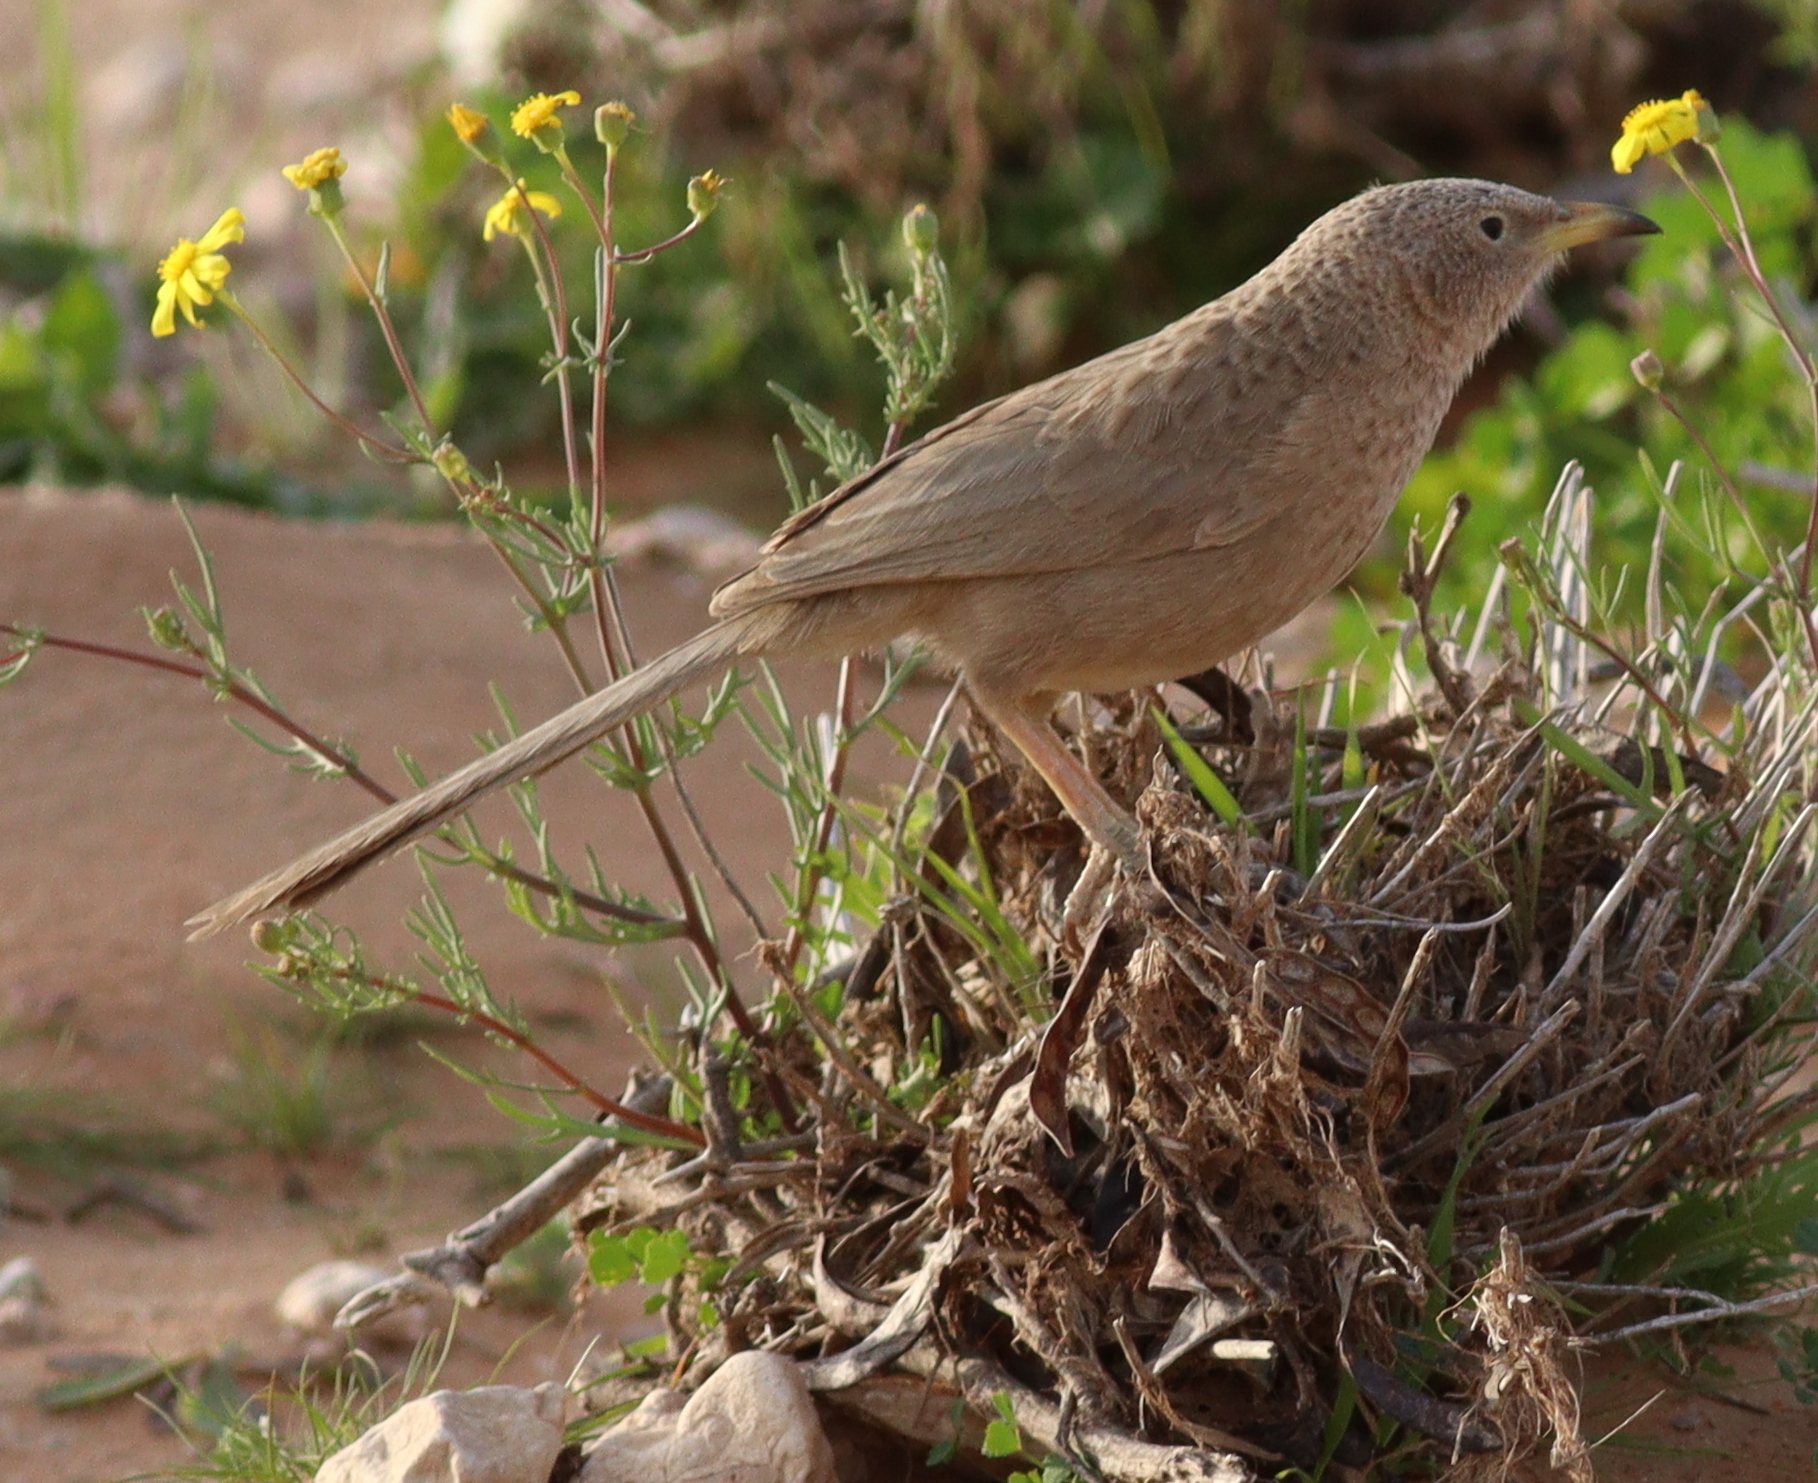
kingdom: Animalia
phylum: Chordata
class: Aves
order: Passeriformes
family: Leiothrichidae
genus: Turdoides
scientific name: Turdoides squamiceps
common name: Arabian babbler
